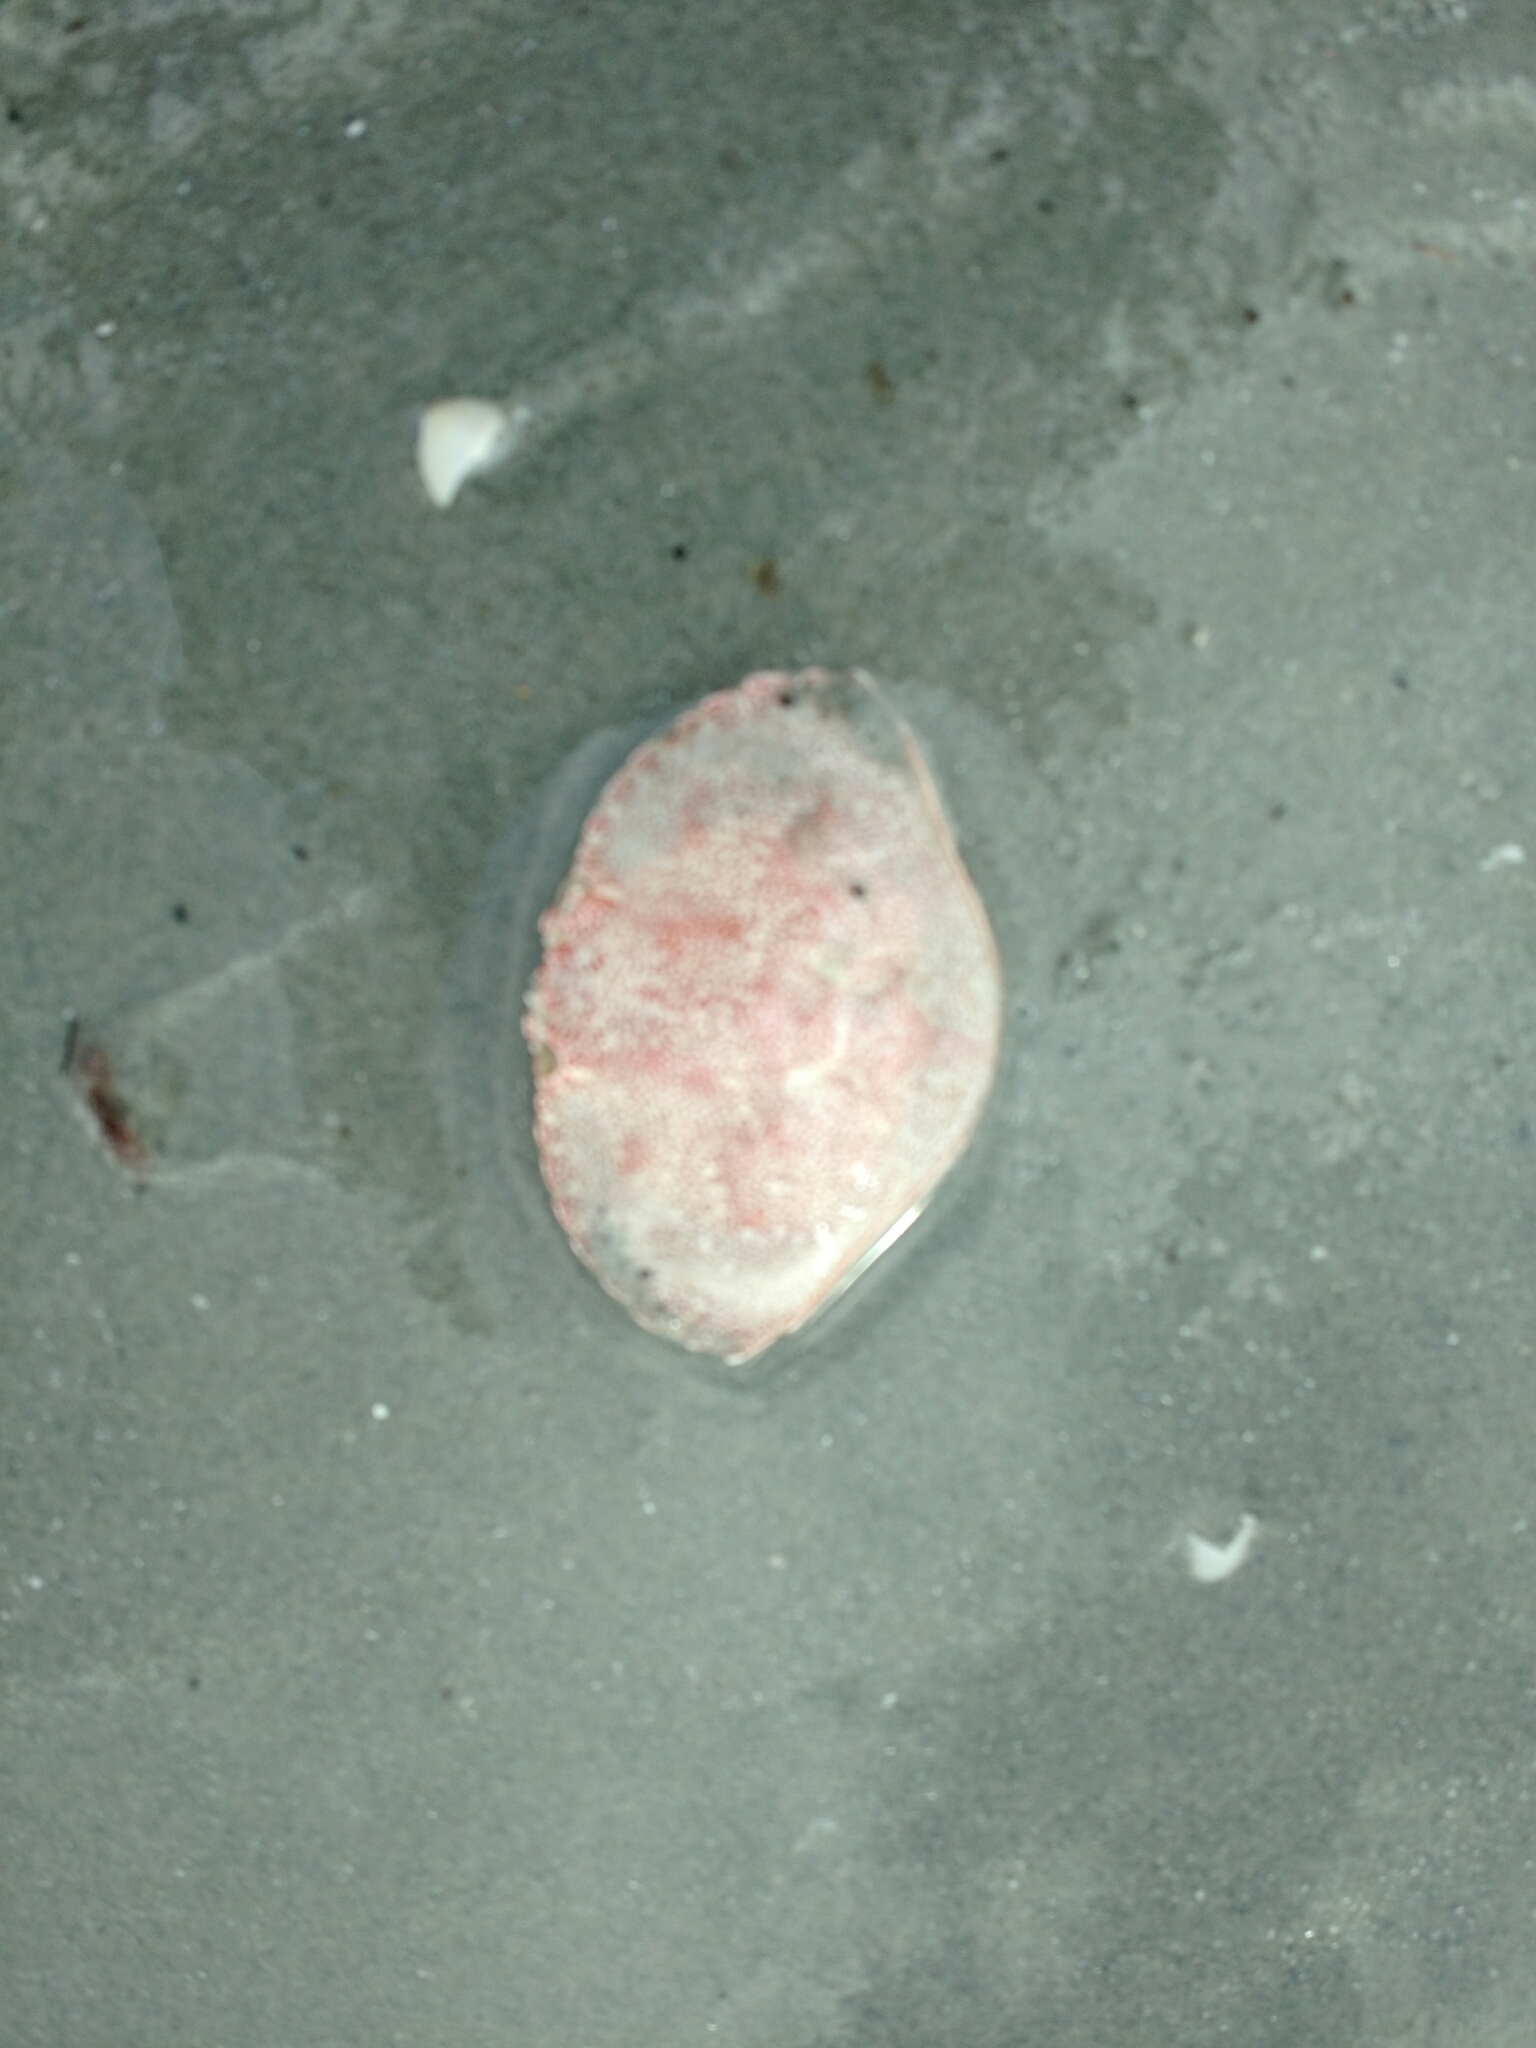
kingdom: Animalia
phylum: Arthropoda
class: Malacostraca
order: Decapoda
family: Cancridae
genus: Cancer
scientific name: Cancer irroratus
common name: Atlantic rock crab
